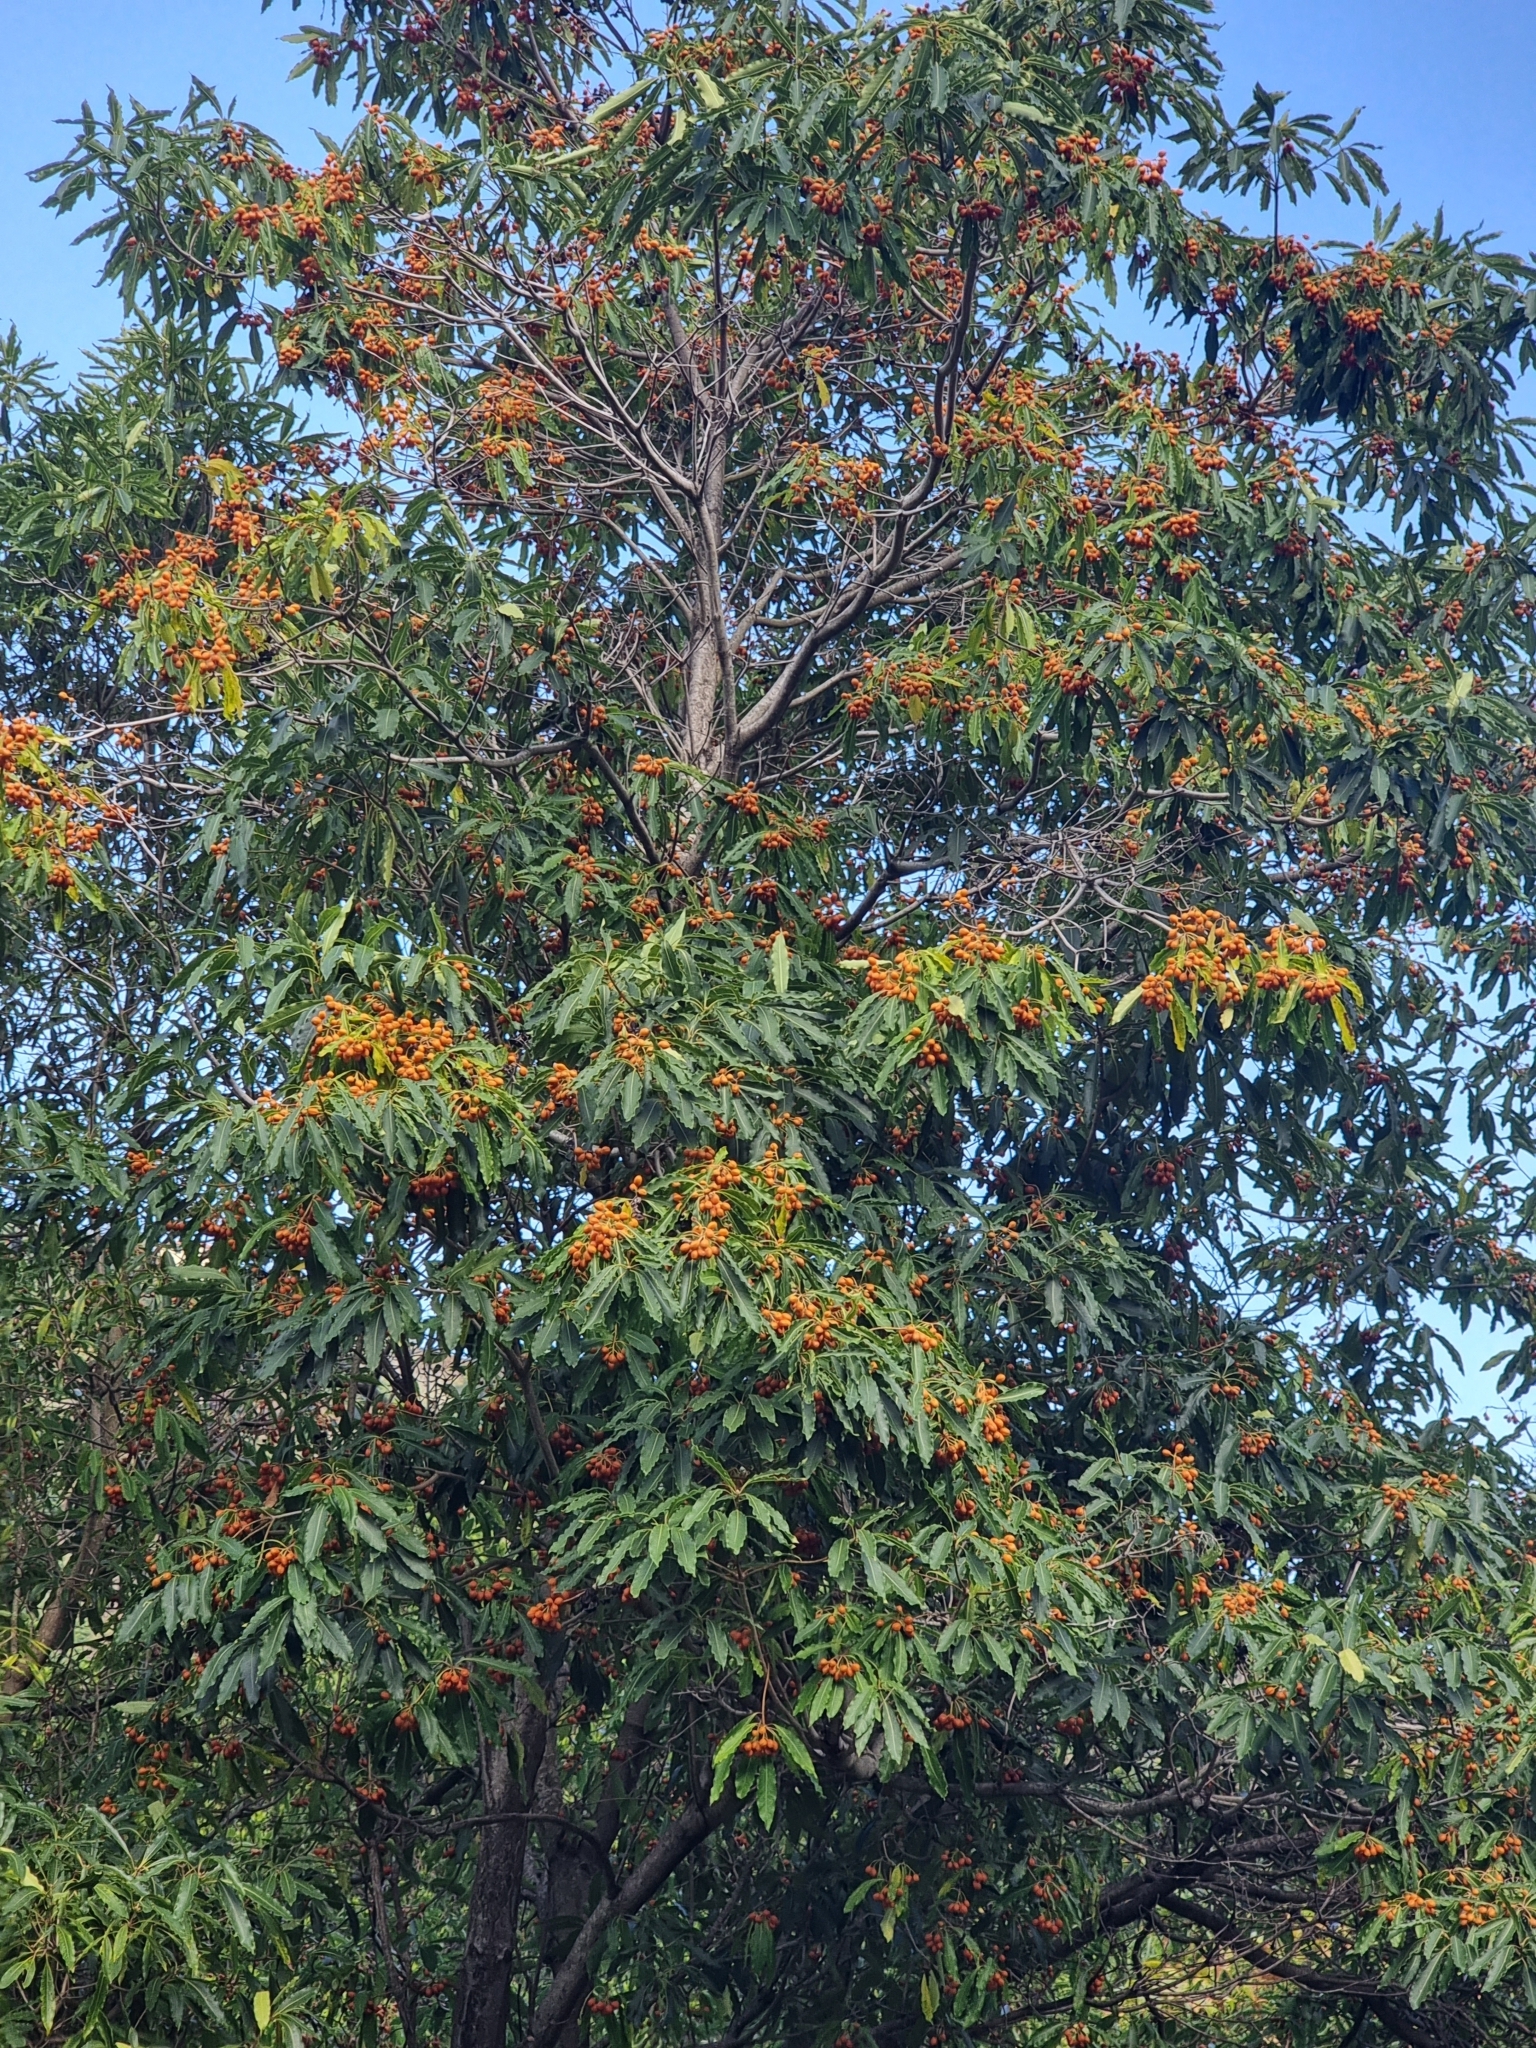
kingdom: Plantae
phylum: Tracheophyta
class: Magnoliopsida
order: Apiales
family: Pittosporaceae
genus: Pittosporum
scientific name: Pittosporum undulatum
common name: Australian cheesewood
